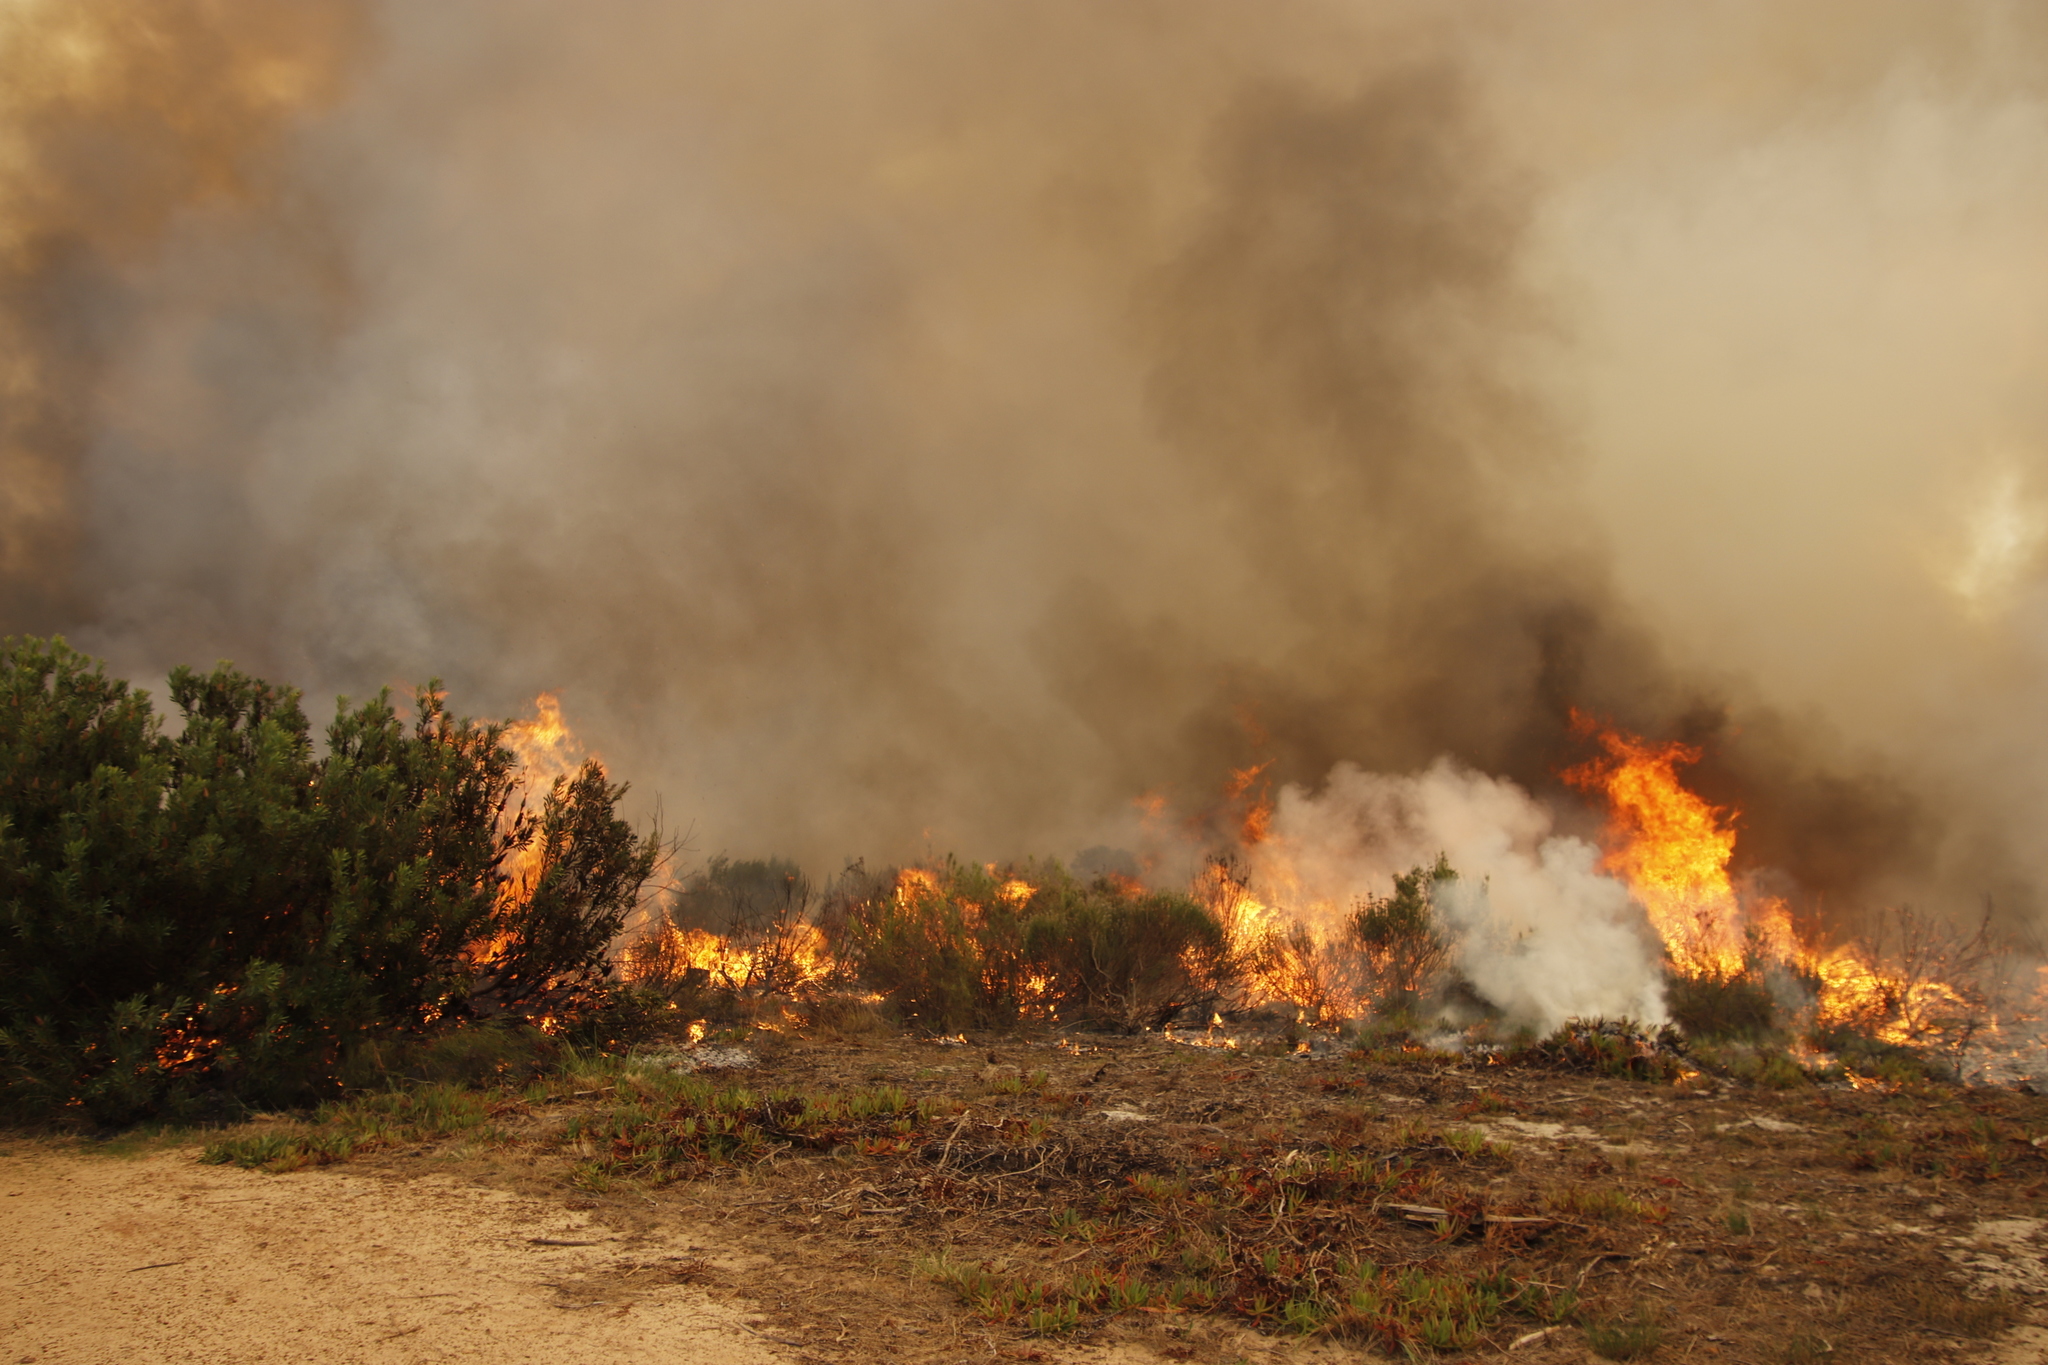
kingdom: Plantae
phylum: Tracheophyta
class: Magnoliopsida
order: Malvales
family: Thymelaeaceae
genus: Passerina
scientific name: Passerina corymbosa
